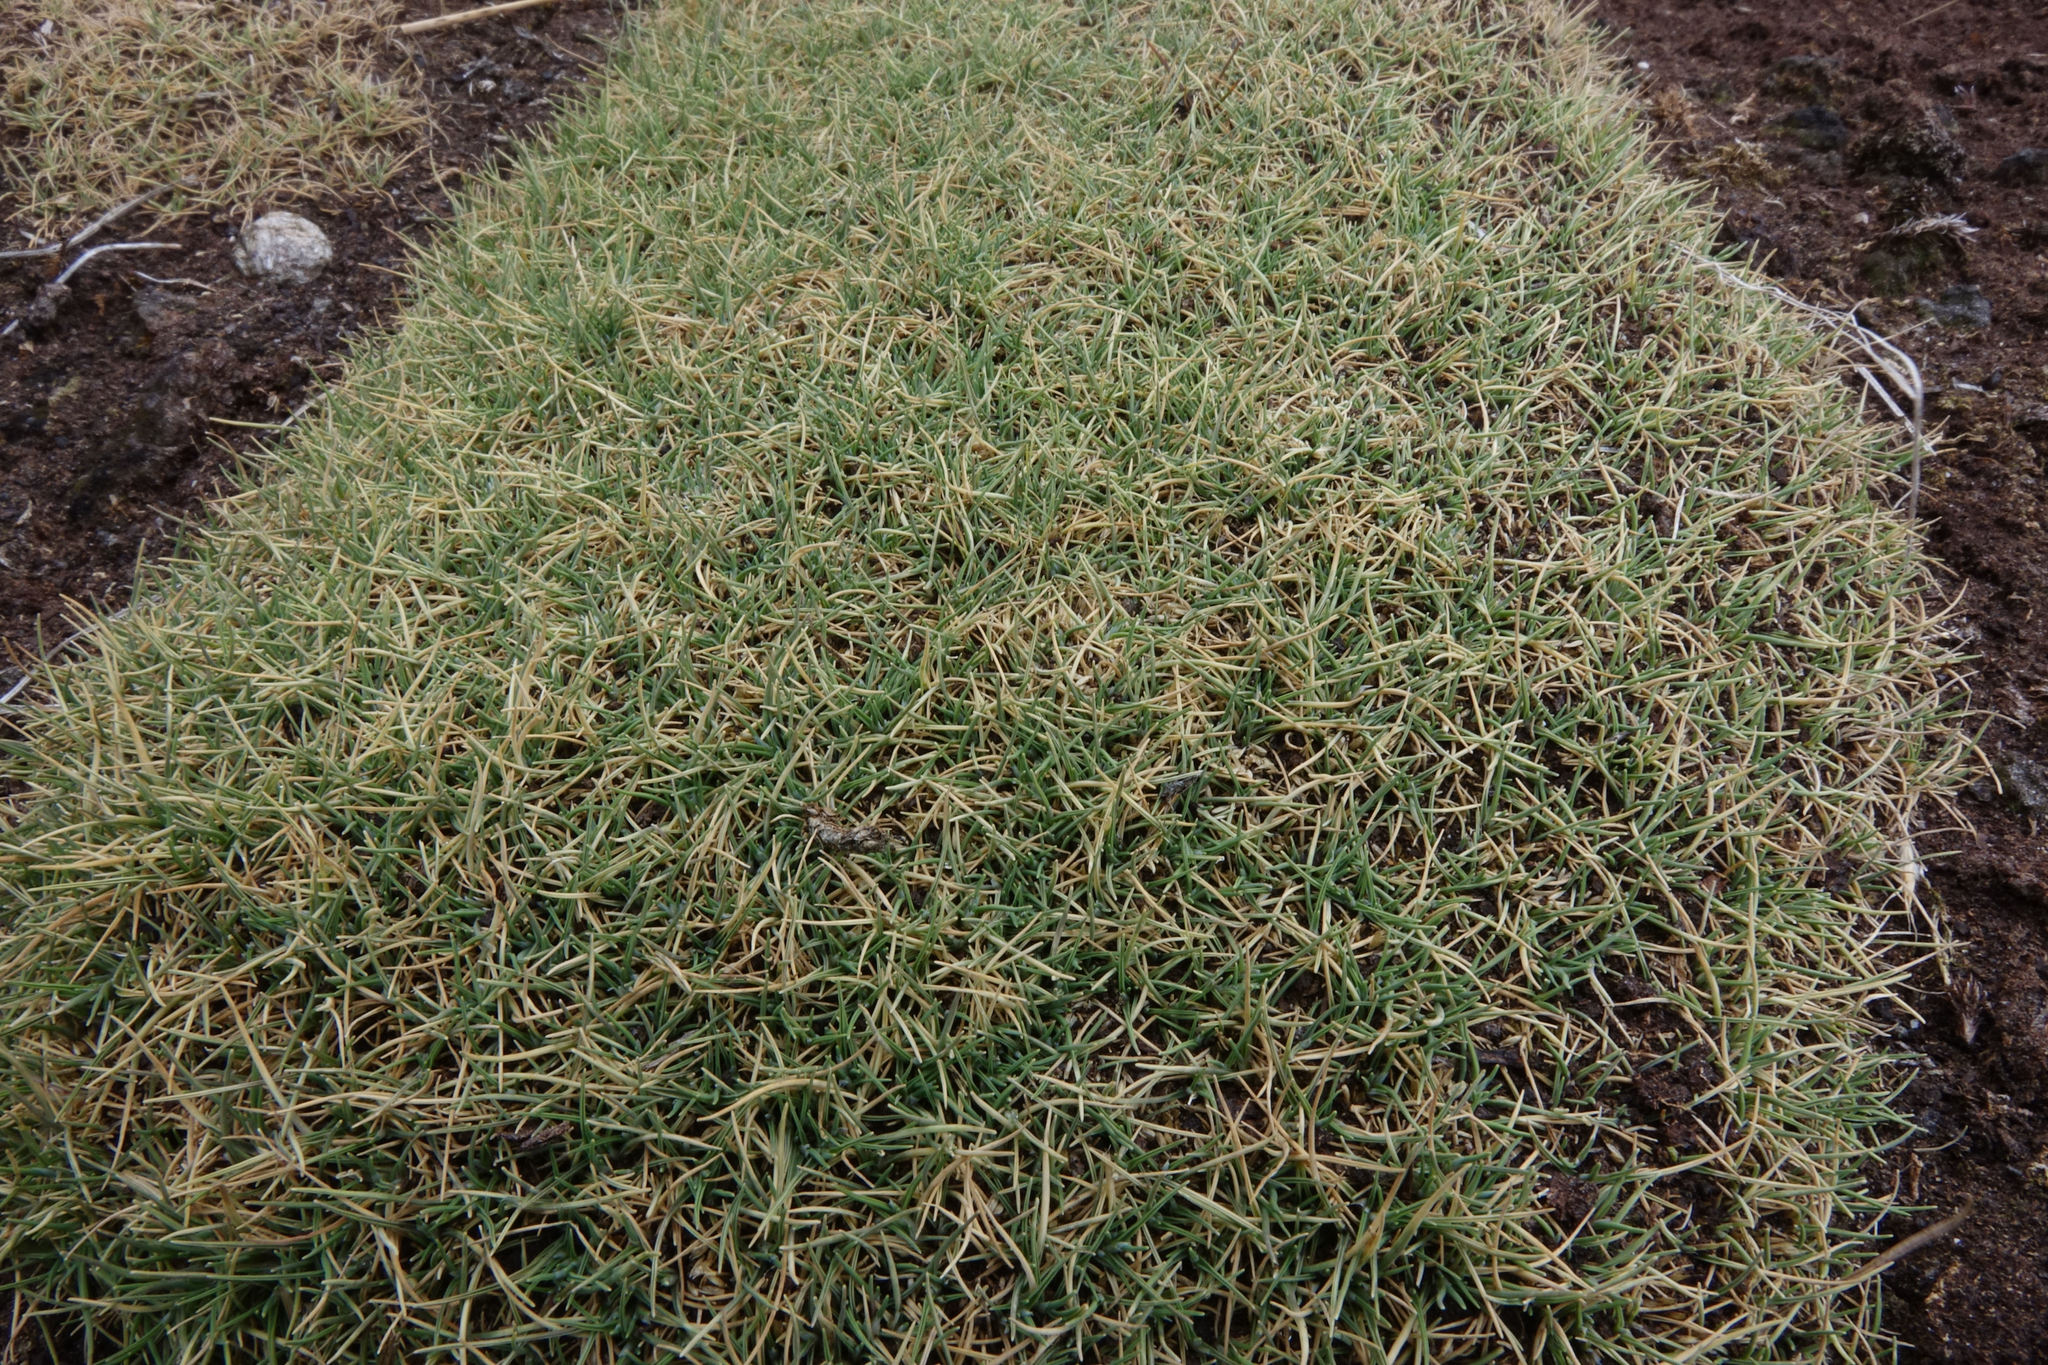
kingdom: Plantae
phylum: Tracheophyta
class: Liliopsida
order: Poales
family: Poaceae
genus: Agrostis
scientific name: Agrostis muscosa
